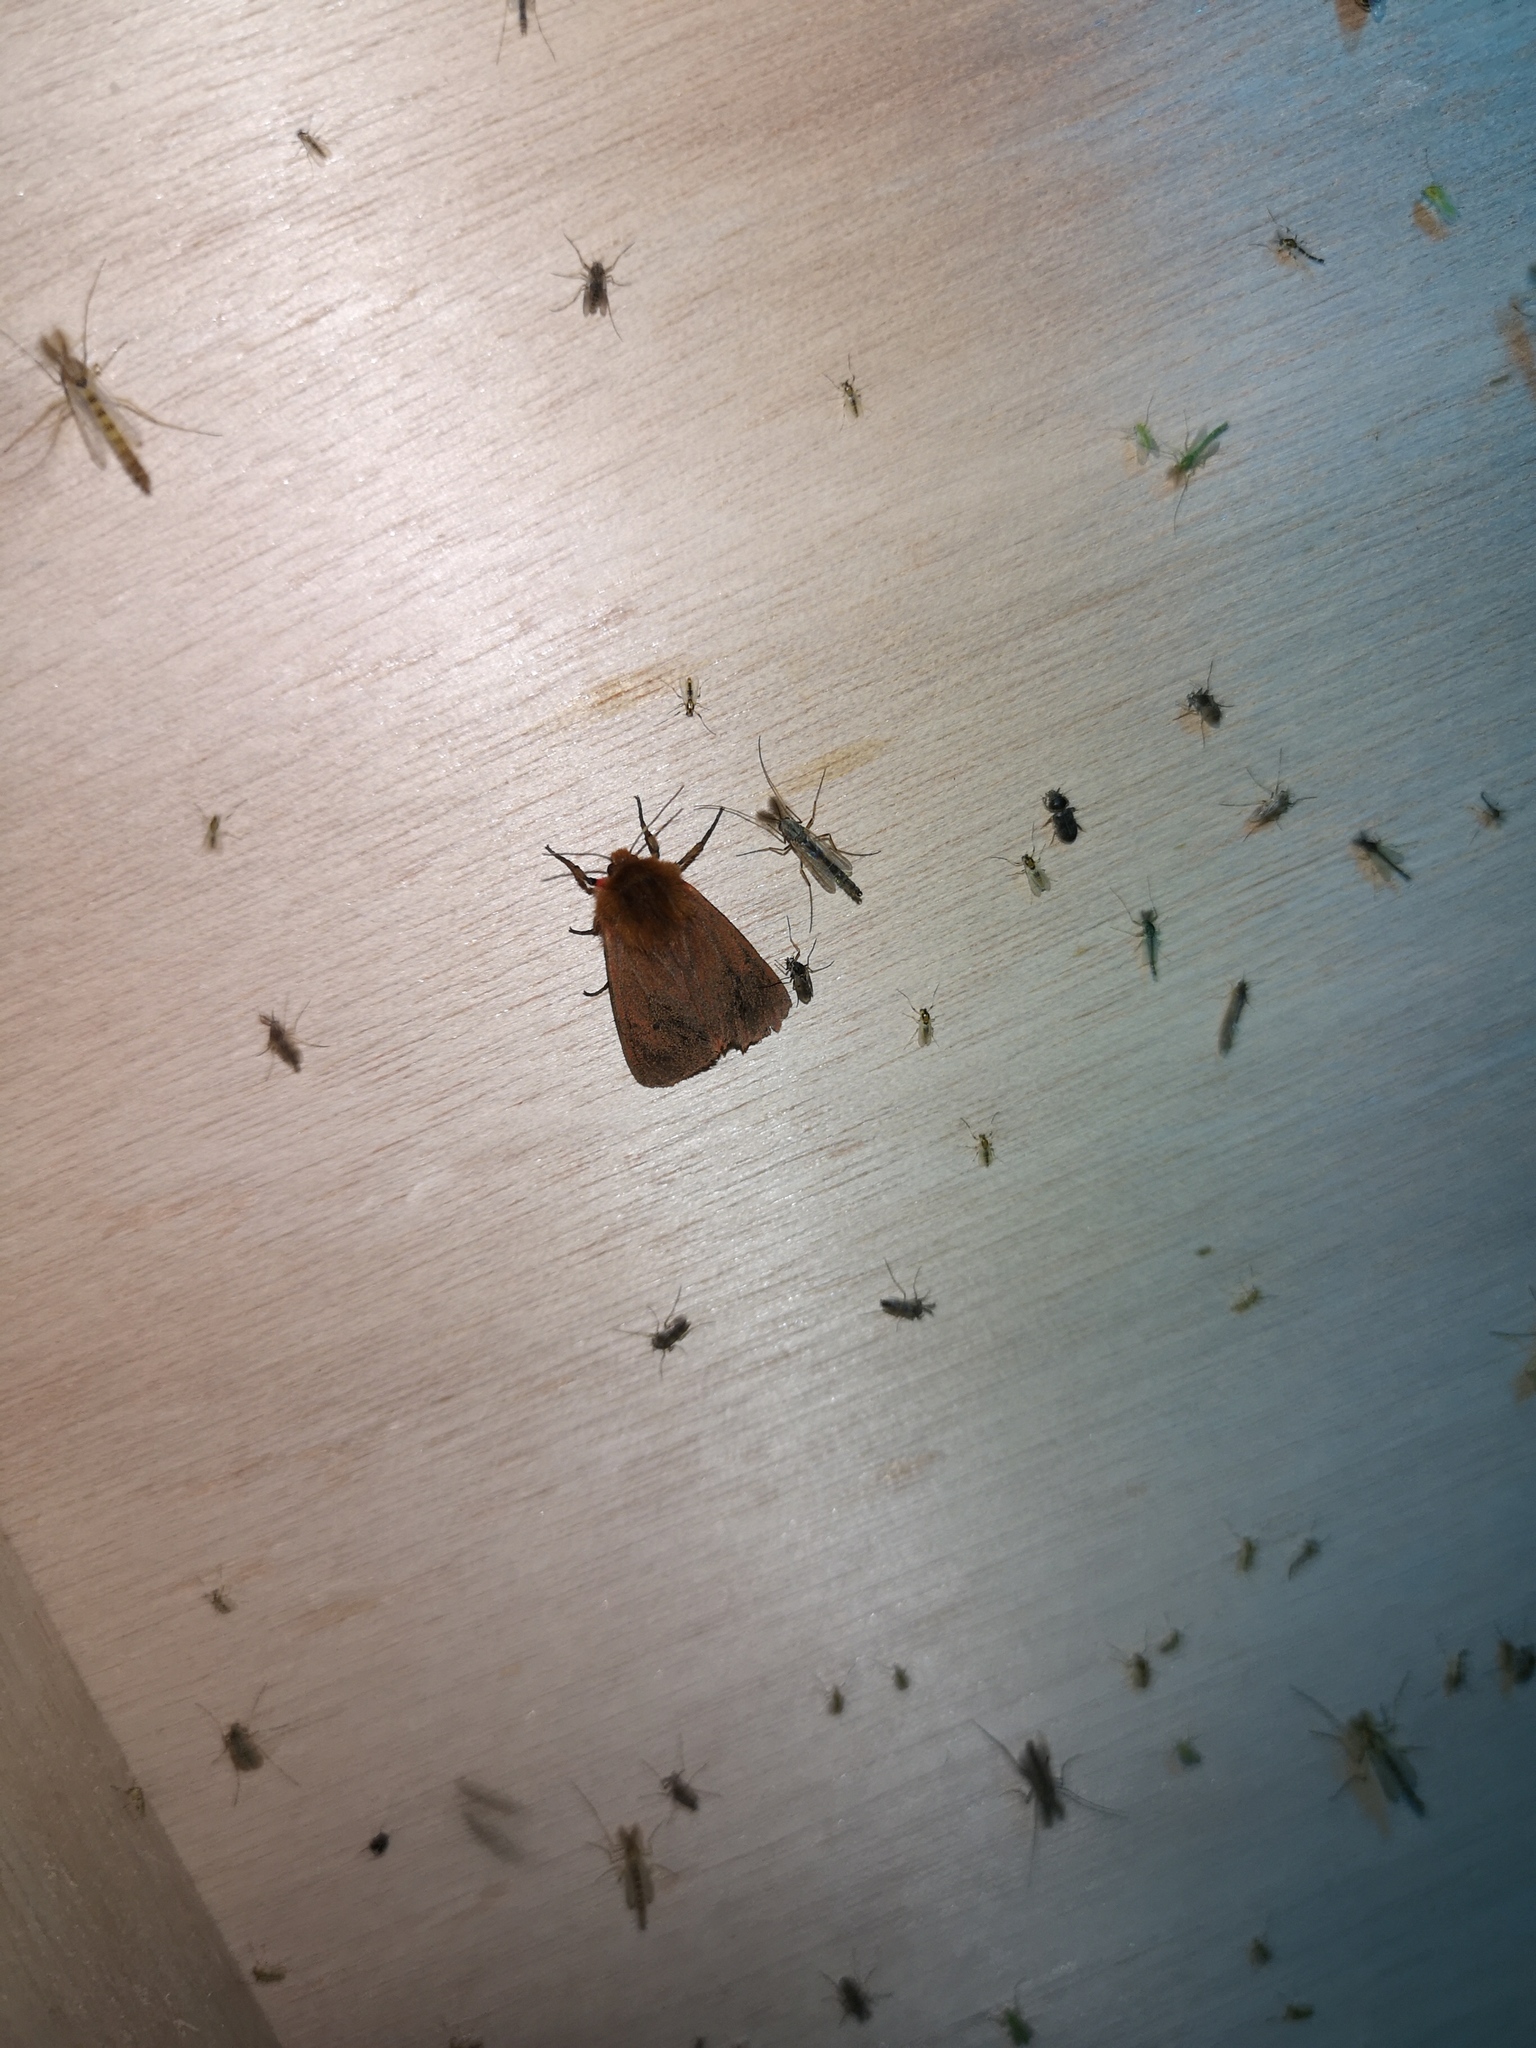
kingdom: Animalia
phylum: Arthropoda
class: Insecta
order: Lepidoptera
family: Erebidae
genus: Phragmatobia
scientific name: Phragmatobia fuliginosa
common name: Ruby tiger
